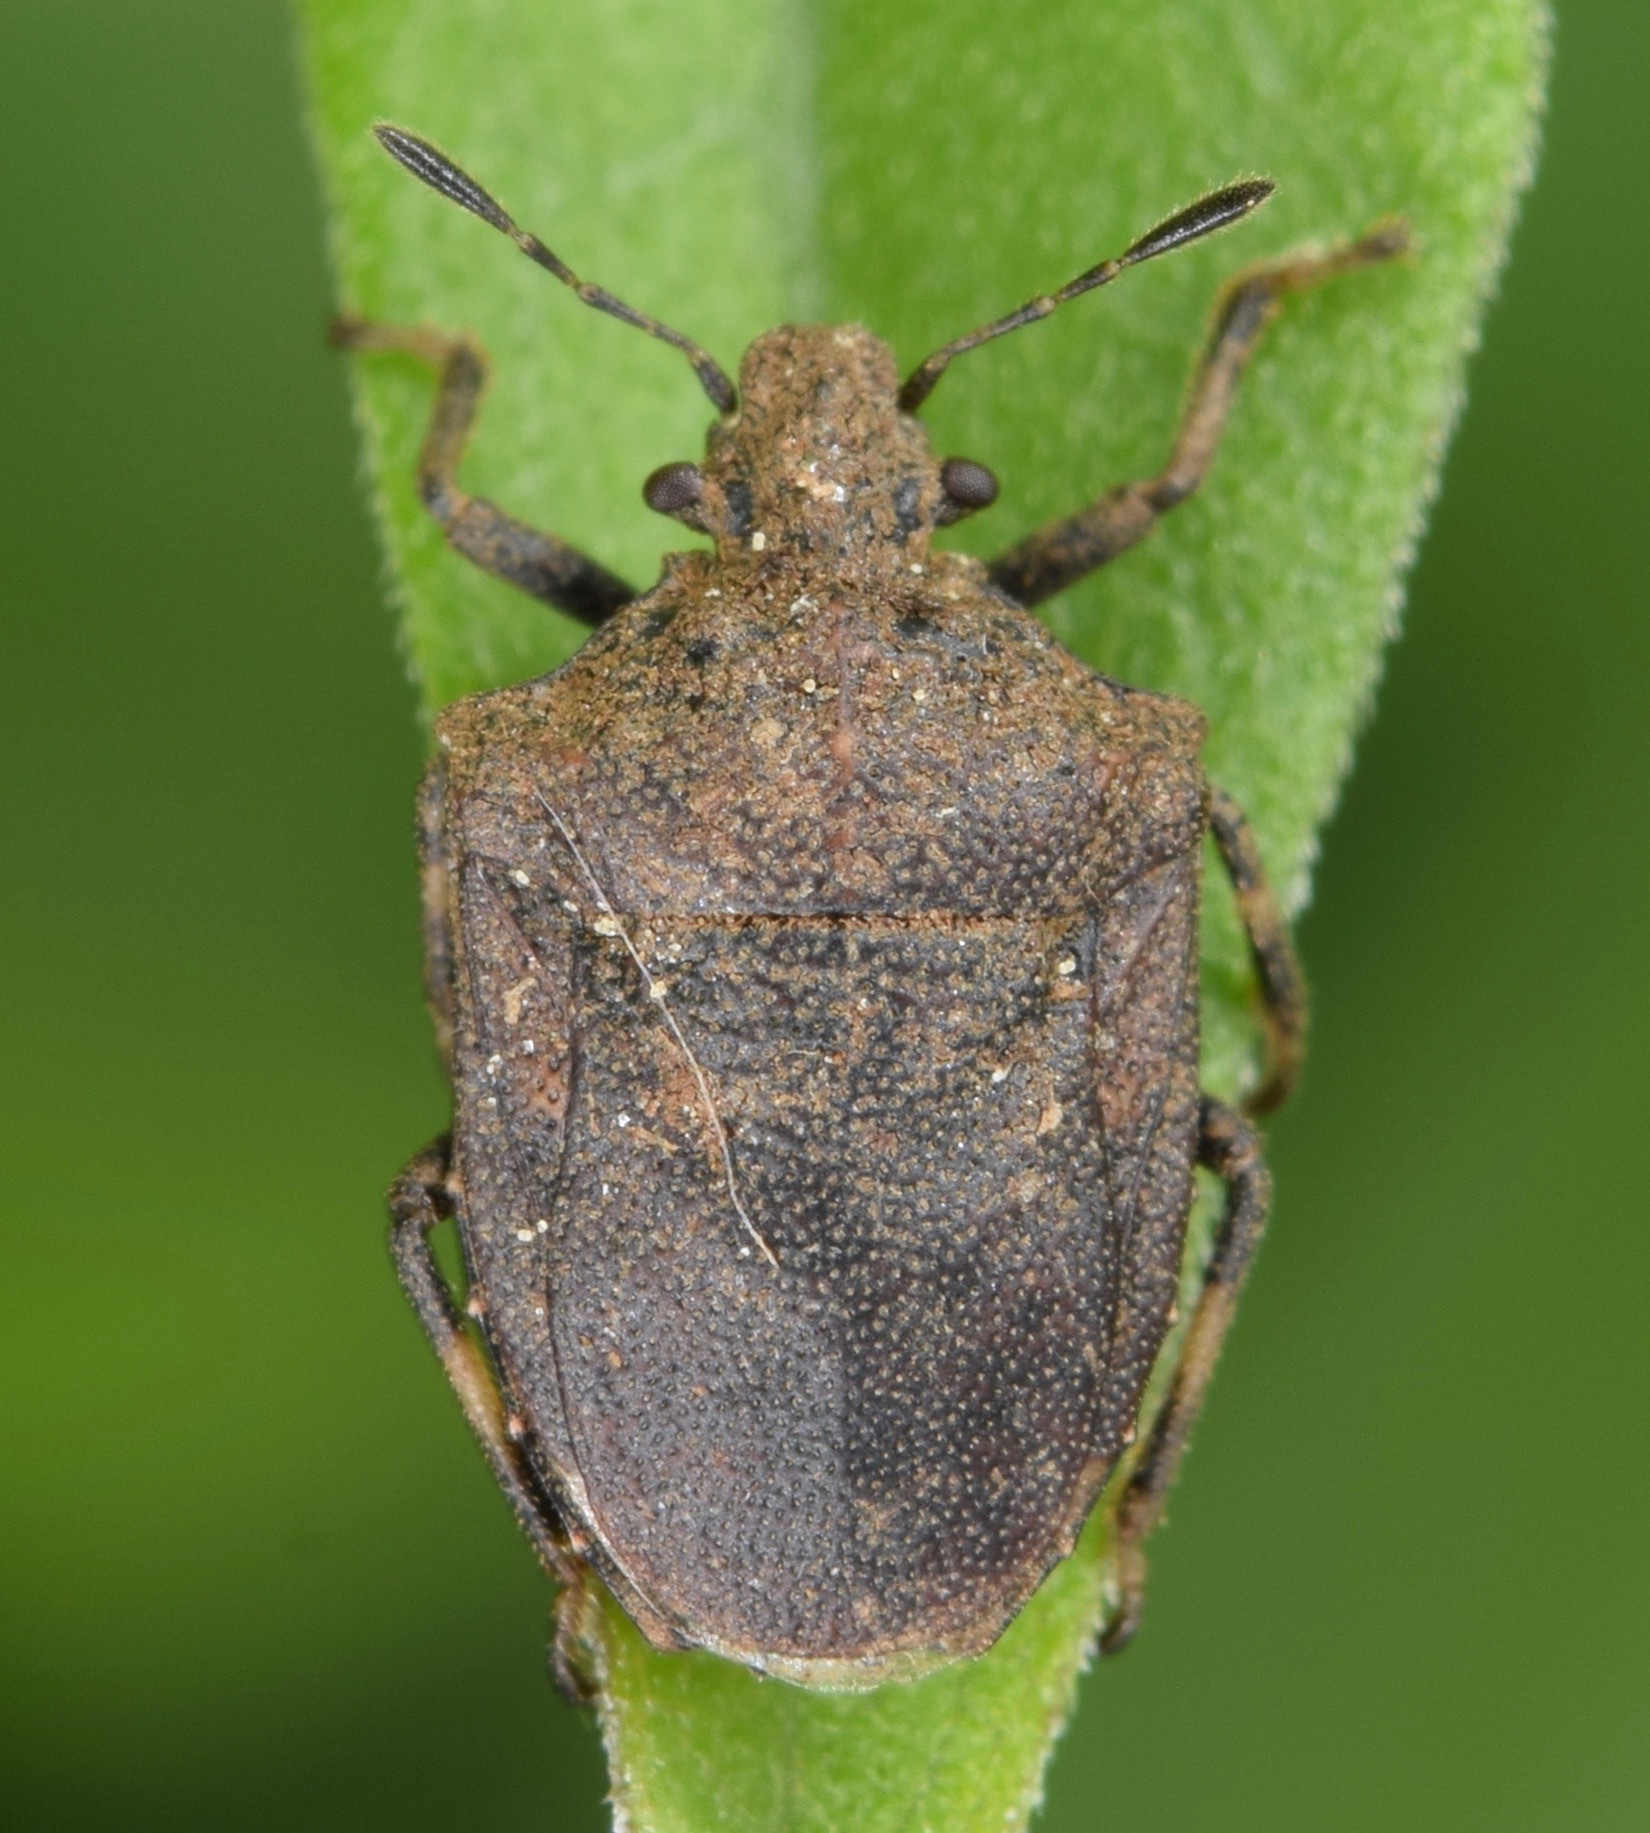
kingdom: Animalia
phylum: Arthropoda
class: Insecta
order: Hemiptera
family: Pentatomidae
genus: Amaurochrous
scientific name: Amaurochrous cinctipes
